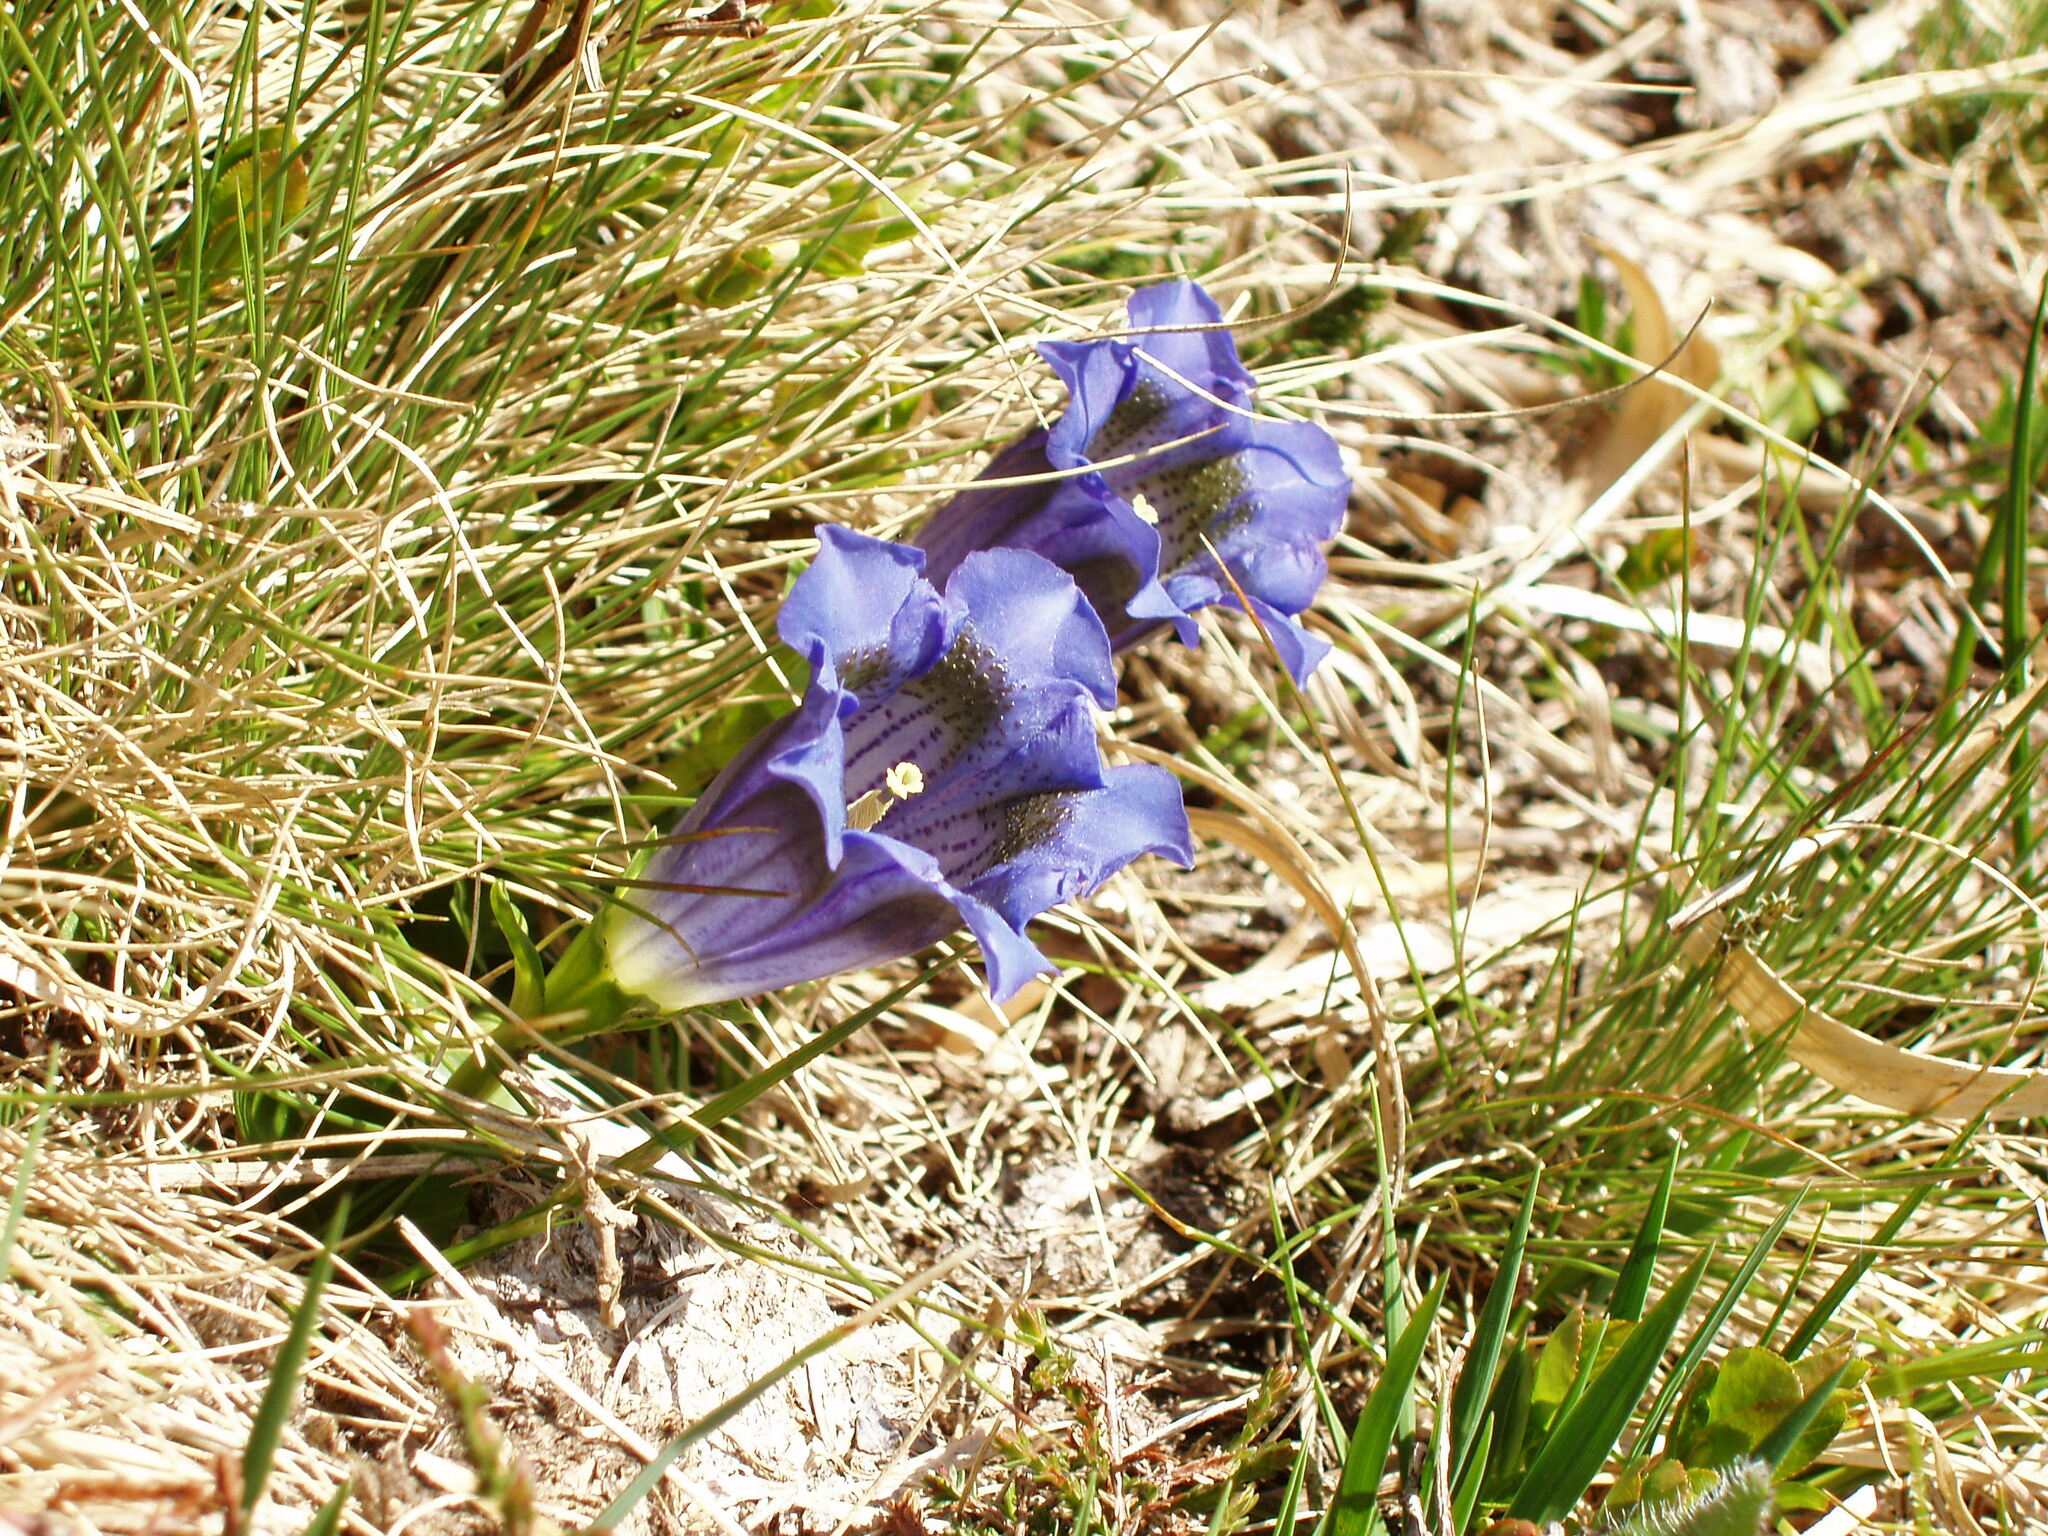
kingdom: Plantae
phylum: Tracheophyta
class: Magnoliopsida
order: Gentianales
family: Gentianaceae
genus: Gentiana
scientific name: Gentiana acaulis
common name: Trumpet gentian
